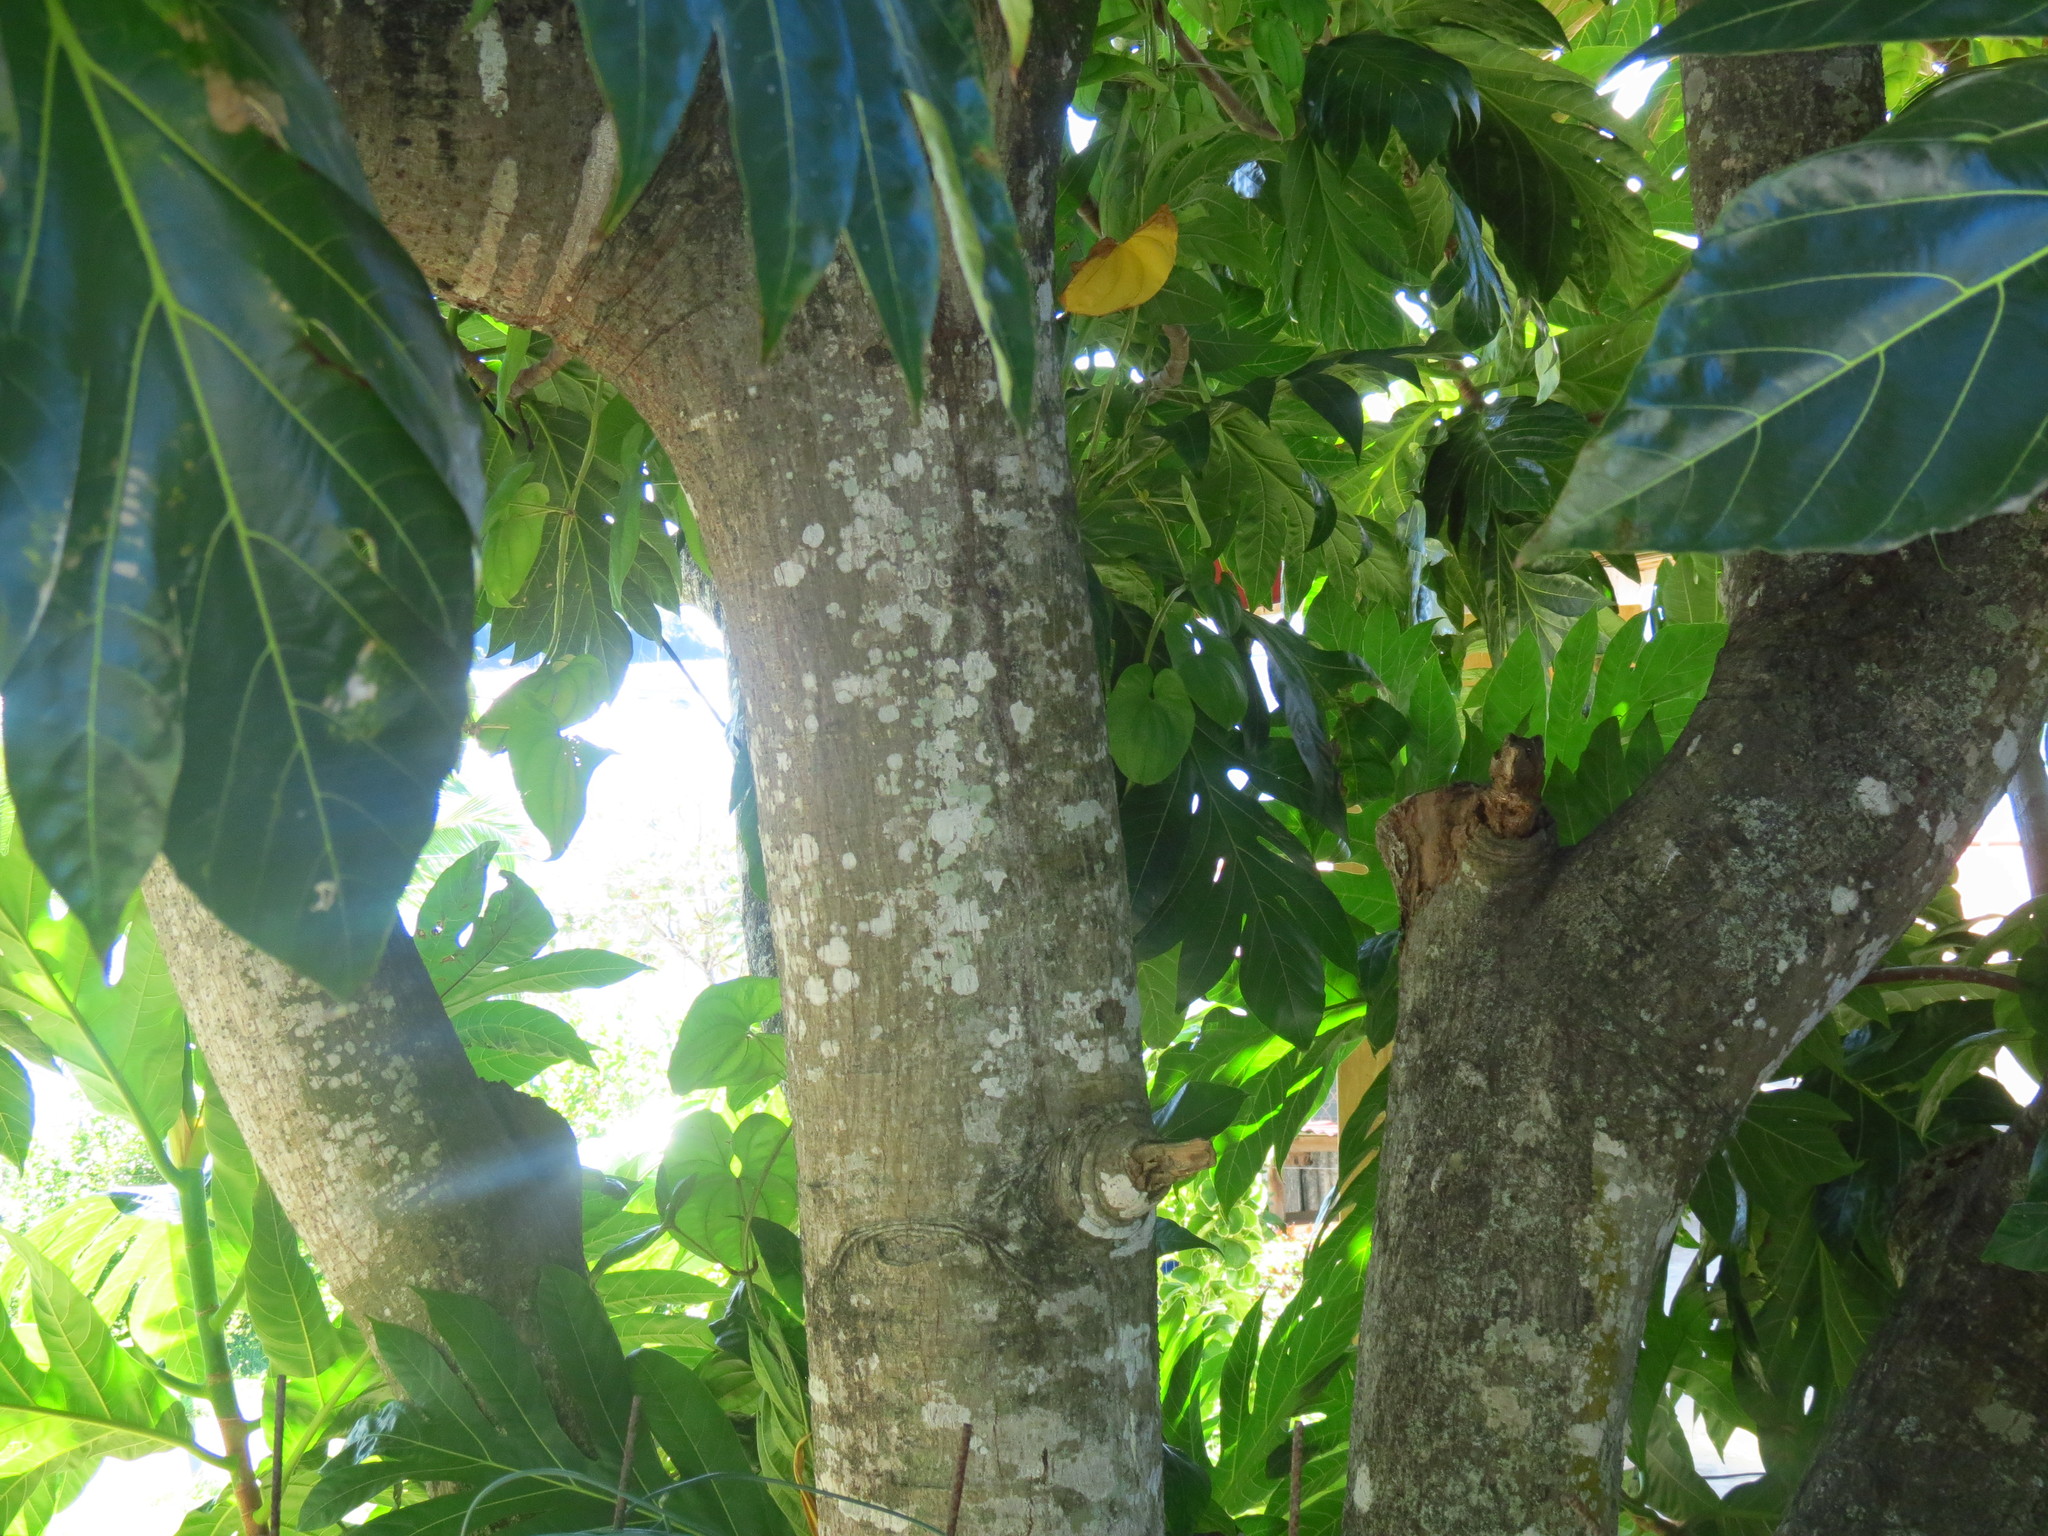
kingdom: Plantae
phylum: Tracheophyta
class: Magnoliopsida
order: Rosales
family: Moraceae
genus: Artocarpus
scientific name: Artocarpus altilis
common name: Breadfruit
